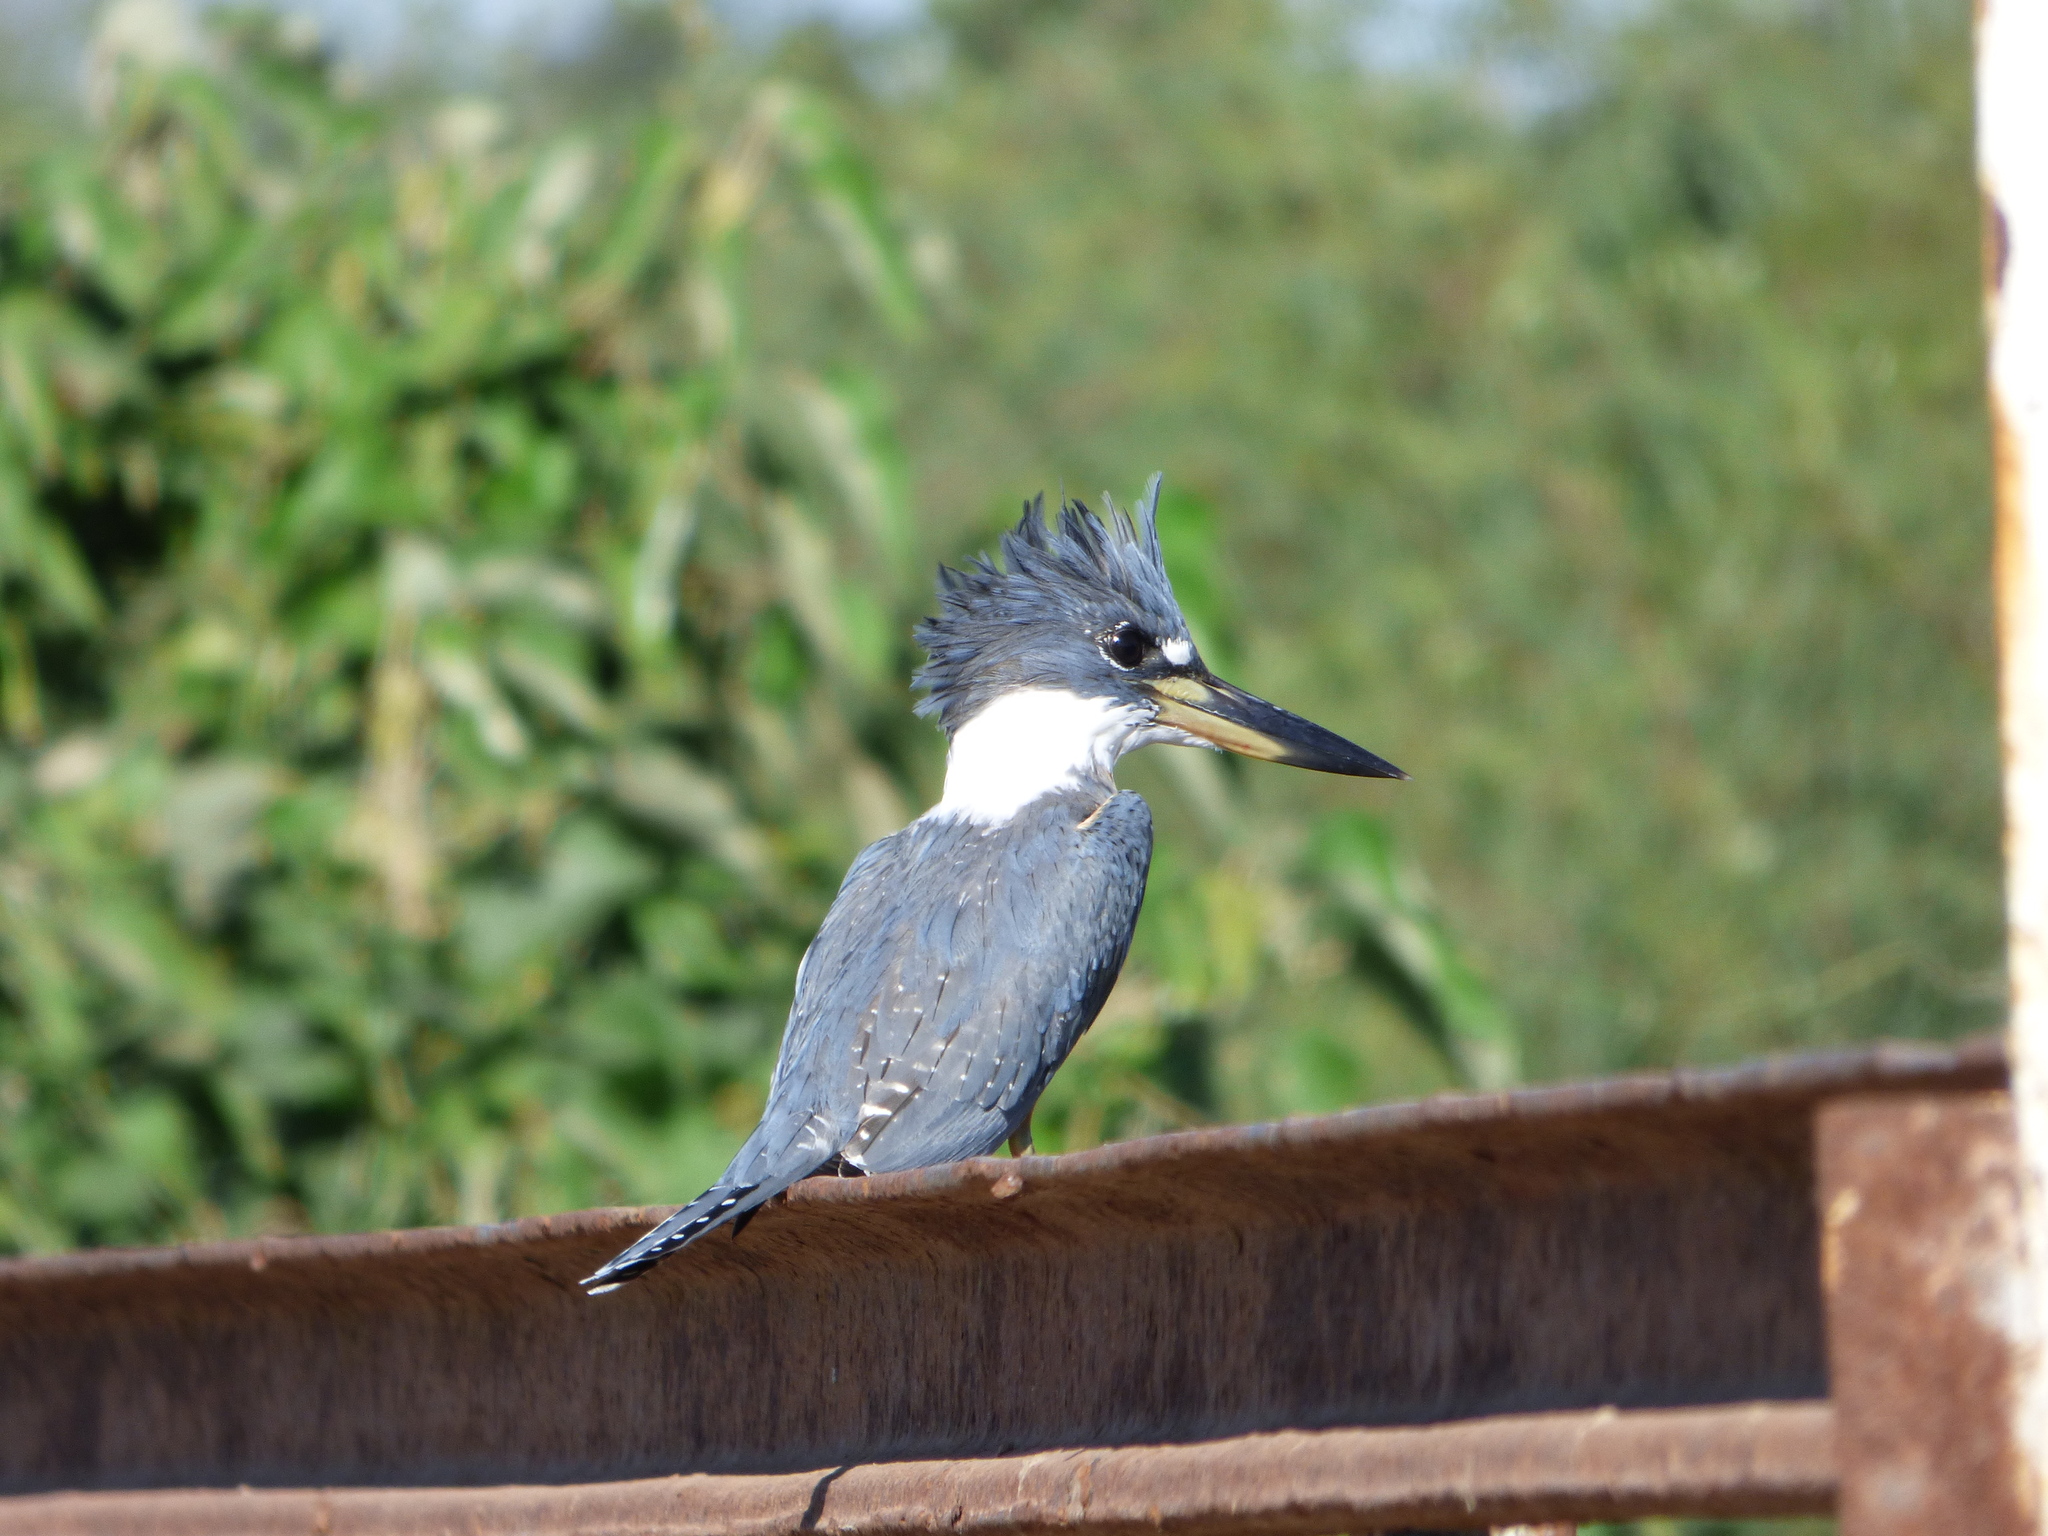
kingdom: Animalia
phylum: Chordata
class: Aves
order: Coraciiformes
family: Alcedinidae
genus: Megaceryle
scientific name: Megaceryle torquata
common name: Ringed kingfisher
